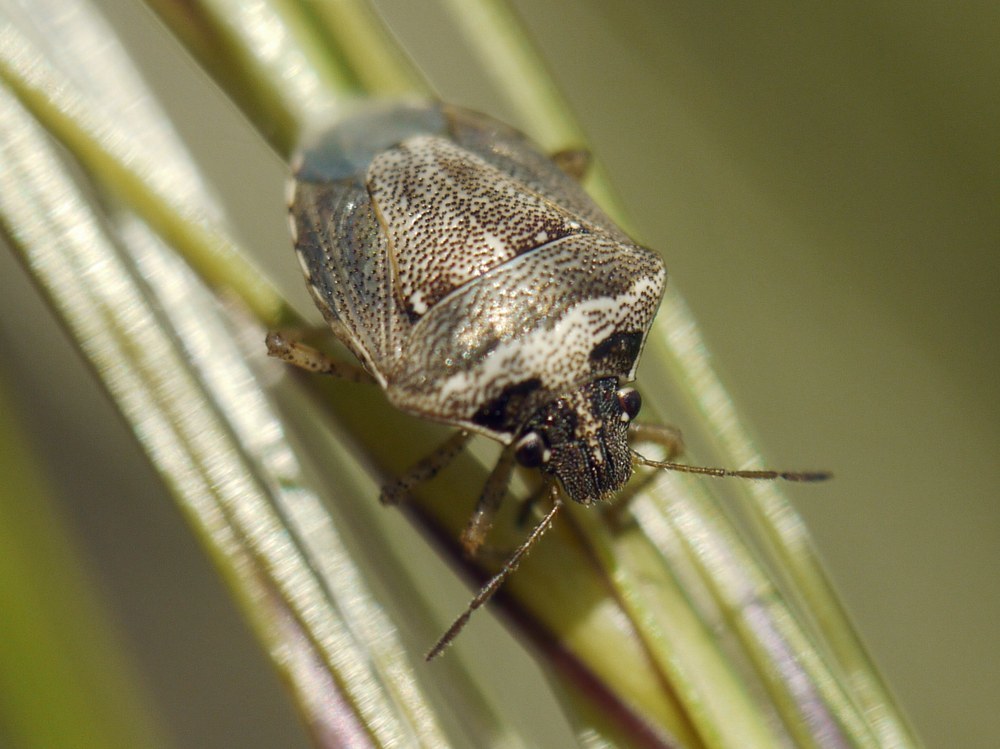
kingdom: Animalia
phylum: Arthropoda
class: Insecta
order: Hemiptera
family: Pentatomidae
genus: Eysarcoris
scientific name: Eysarcoris ventralis
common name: White-spotted stink bug
